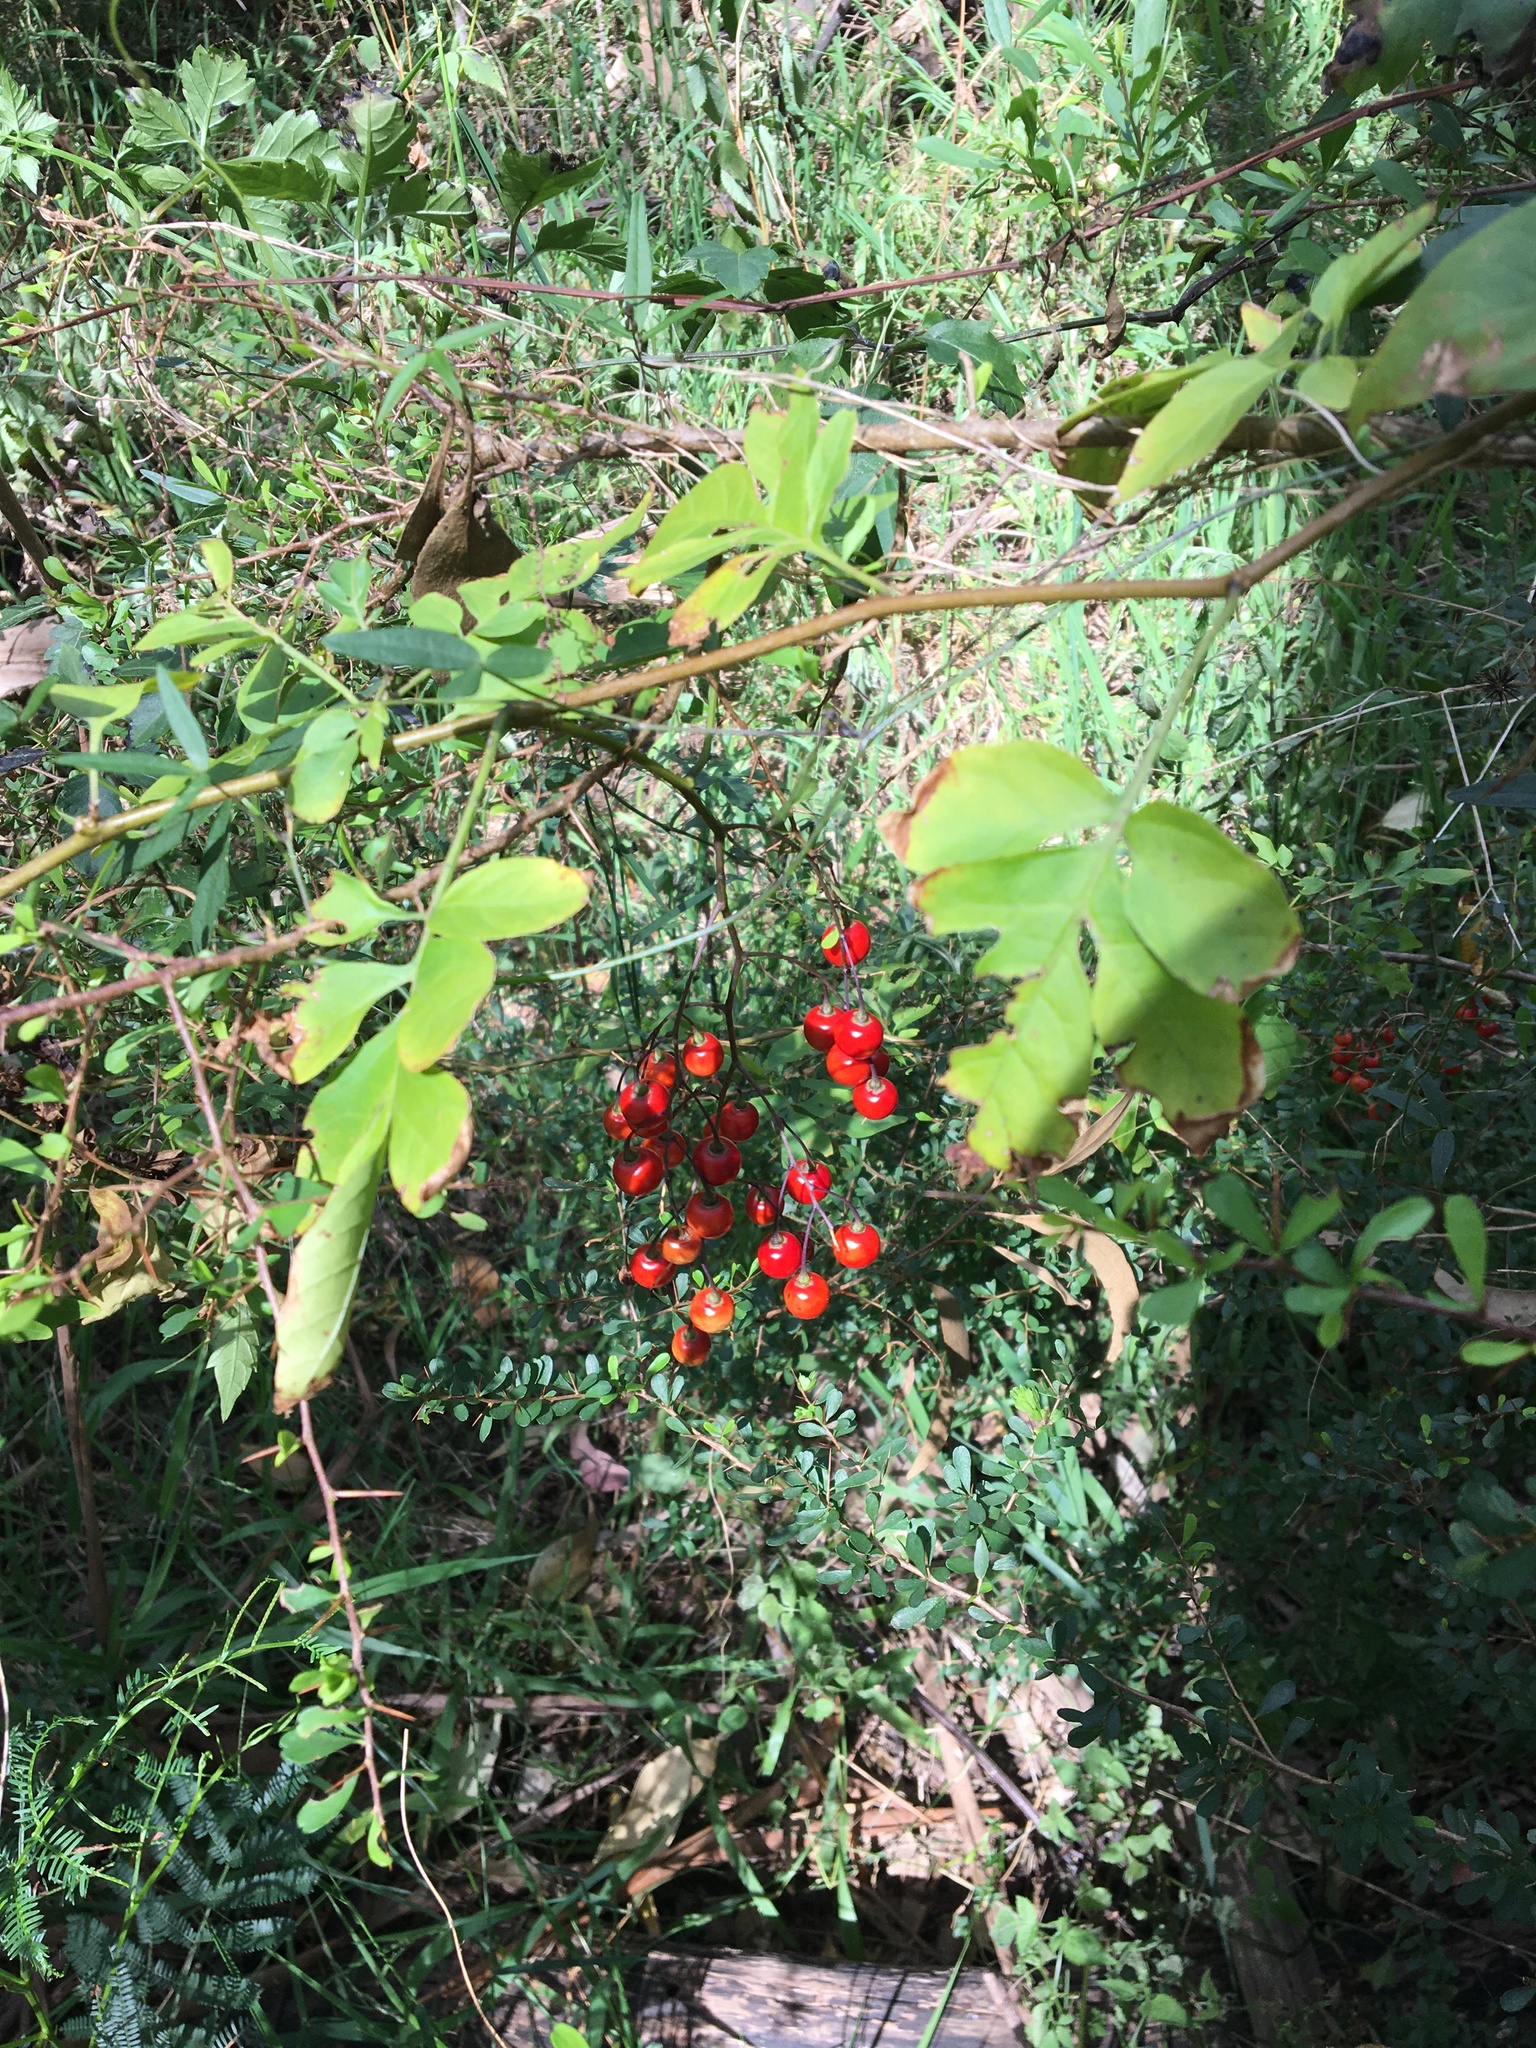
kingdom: Plantae
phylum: Tracheophyta
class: Magnoliopsida
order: Solanales
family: Solanaceae
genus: Solanum
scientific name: Solanum seaforthianum
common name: Brazilian nightshade
